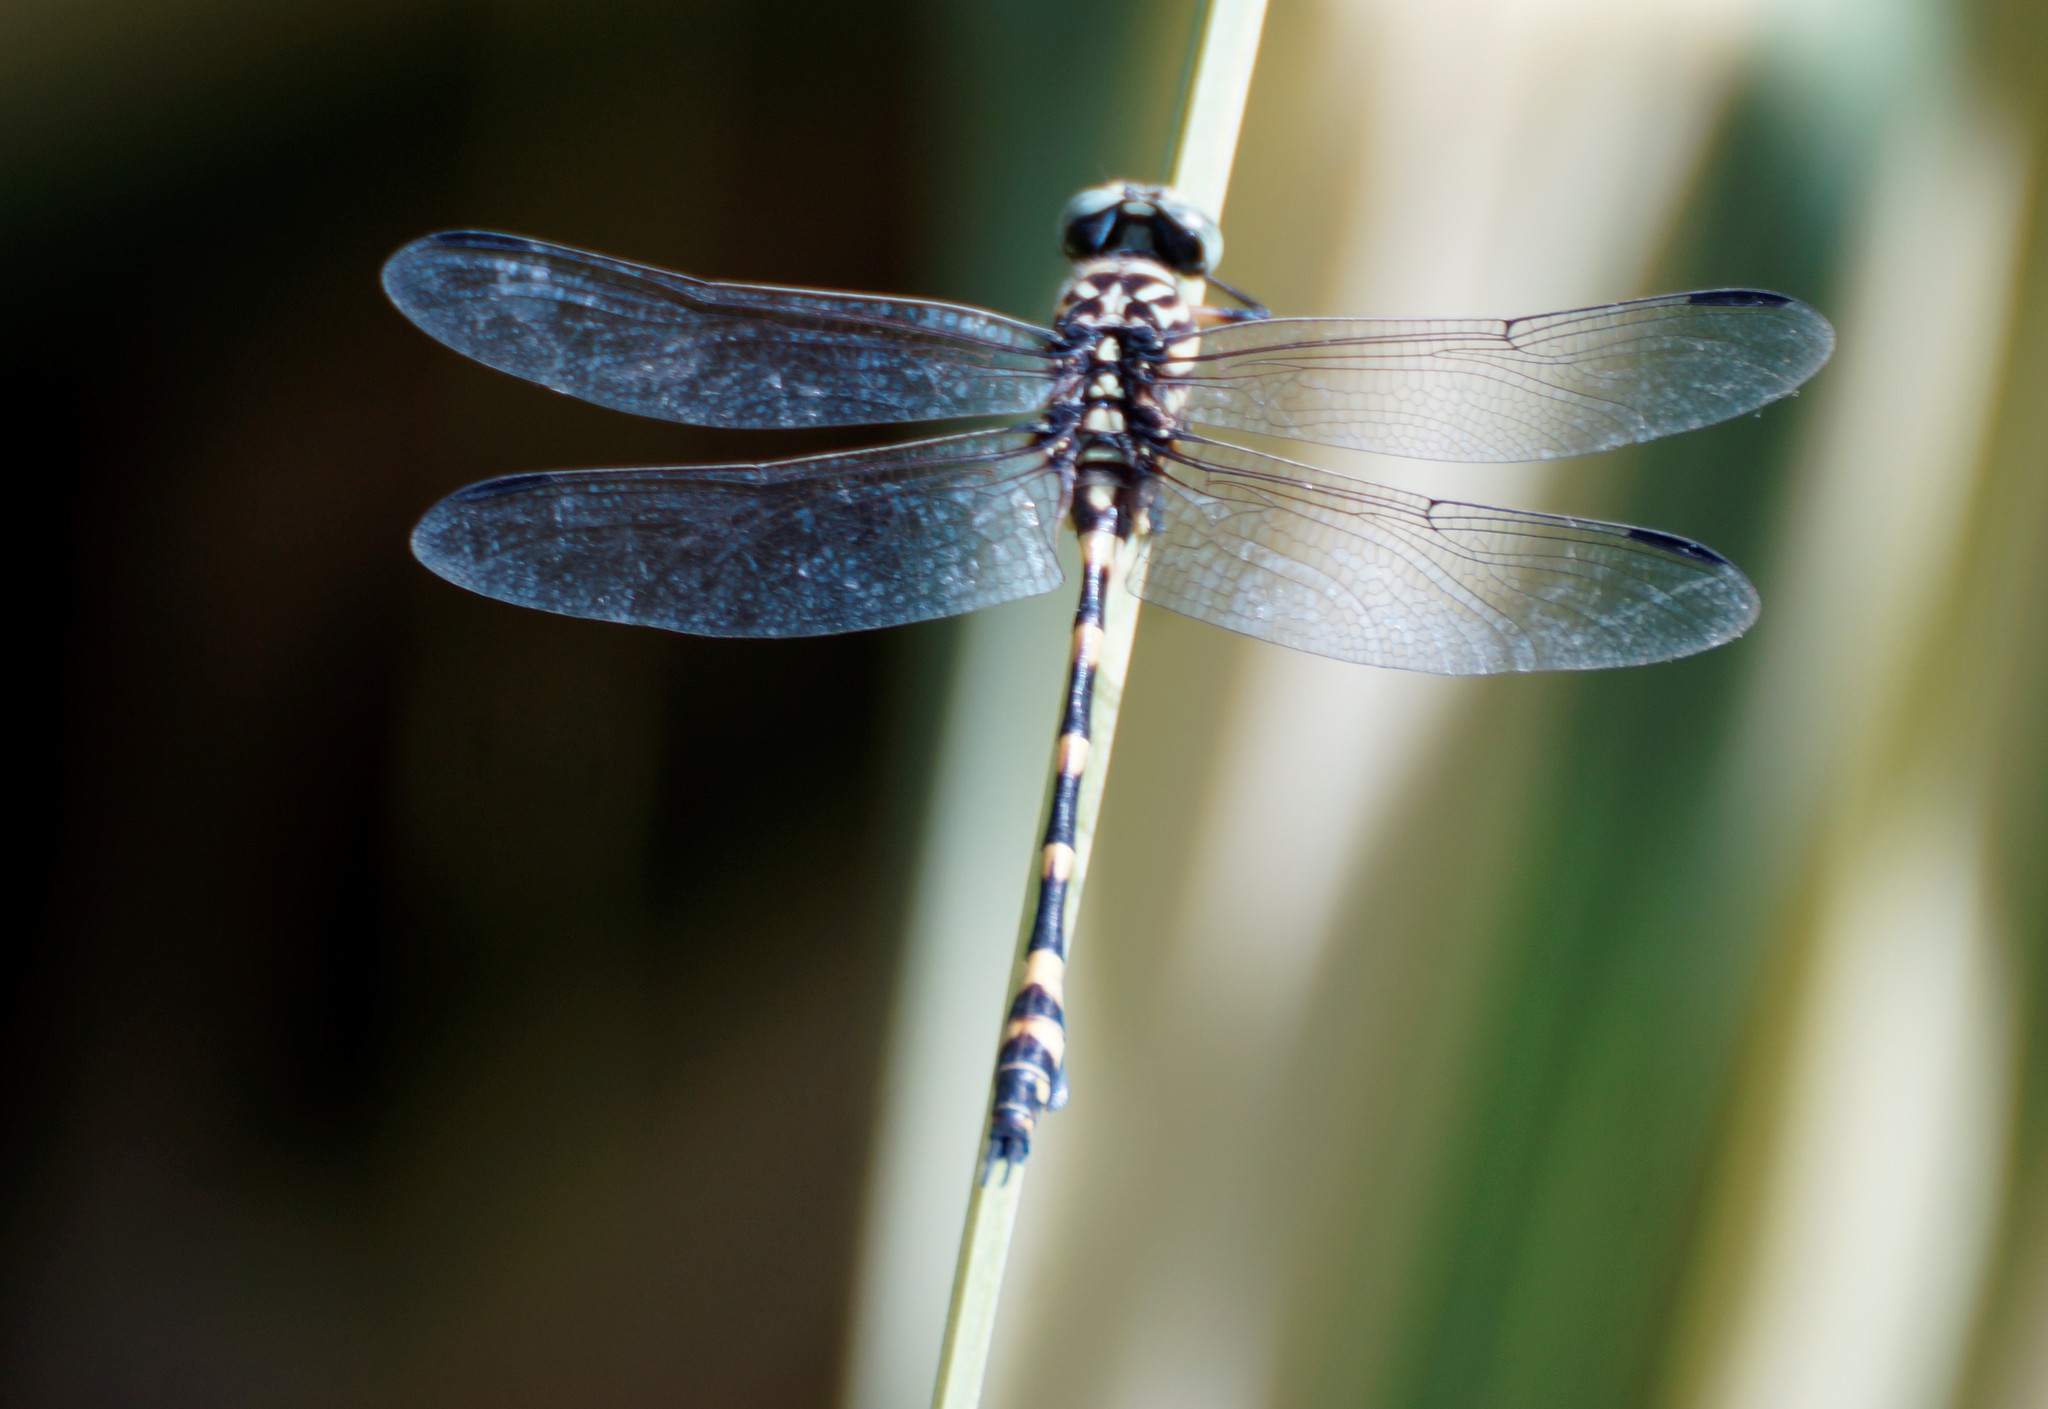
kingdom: Animalia
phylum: Arthropoda
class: Insecta
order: Odonata
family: Gomphidae
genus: Ictinogomphus
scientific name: Ictinogomphus australis
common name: Australian tiger
